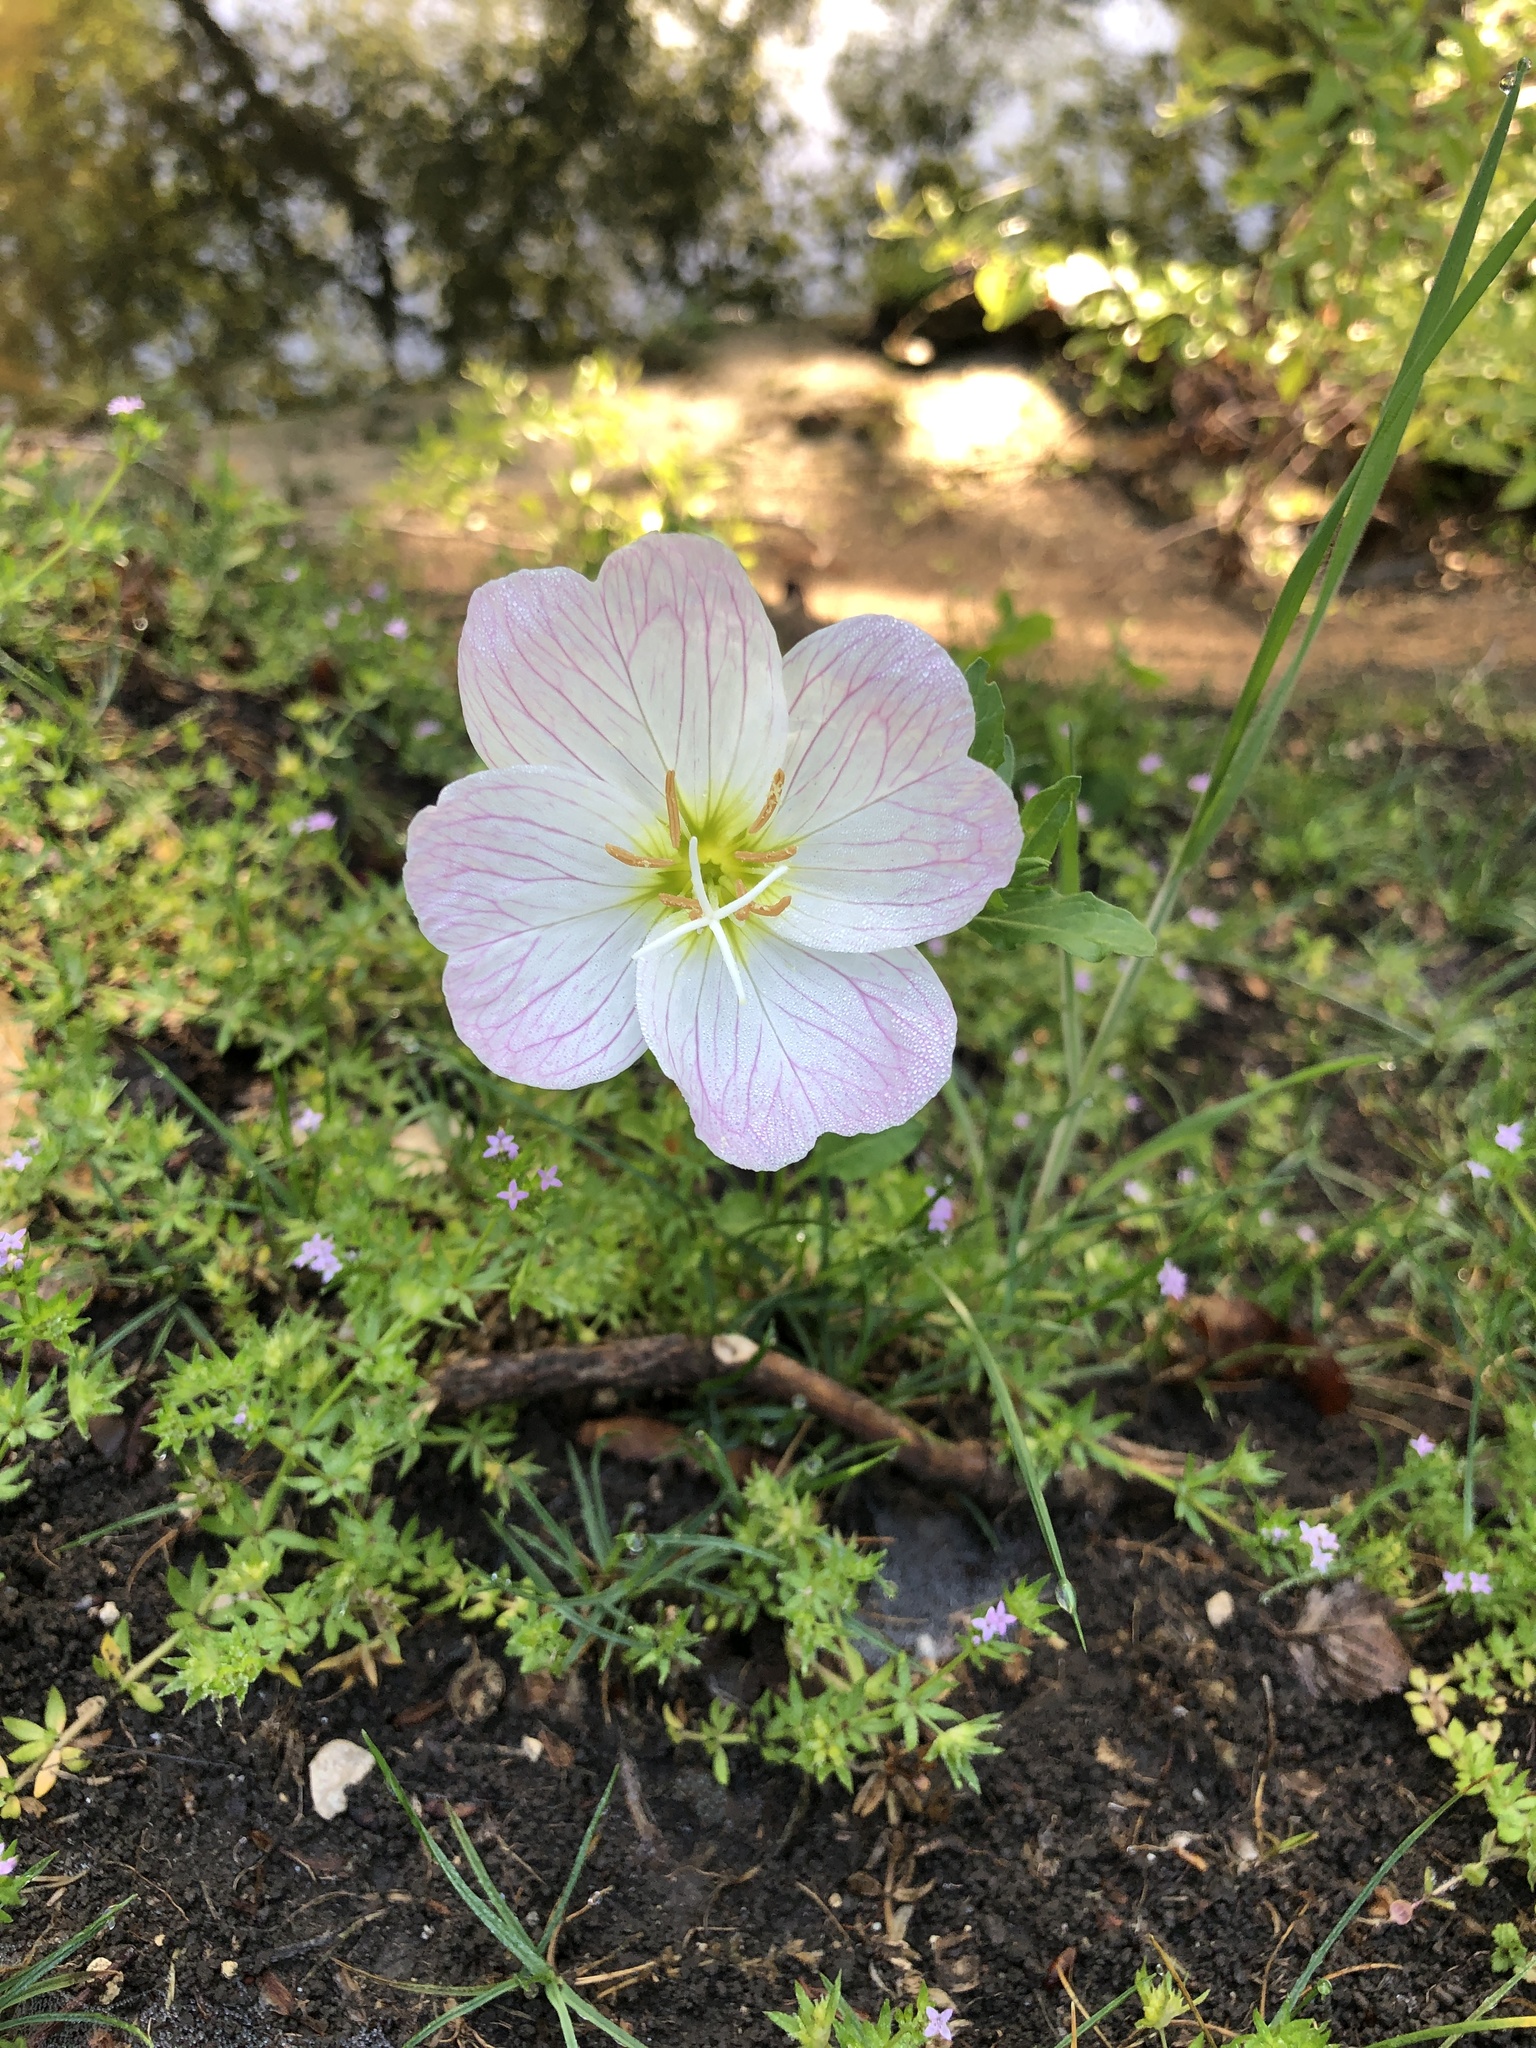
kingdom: Plantae
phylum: Tracheophyta
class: Magnoliopsida
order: Myrtales
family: Onagraceae
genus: Oenothera
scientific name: Oenothera speciosa
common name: White evening-primrose
